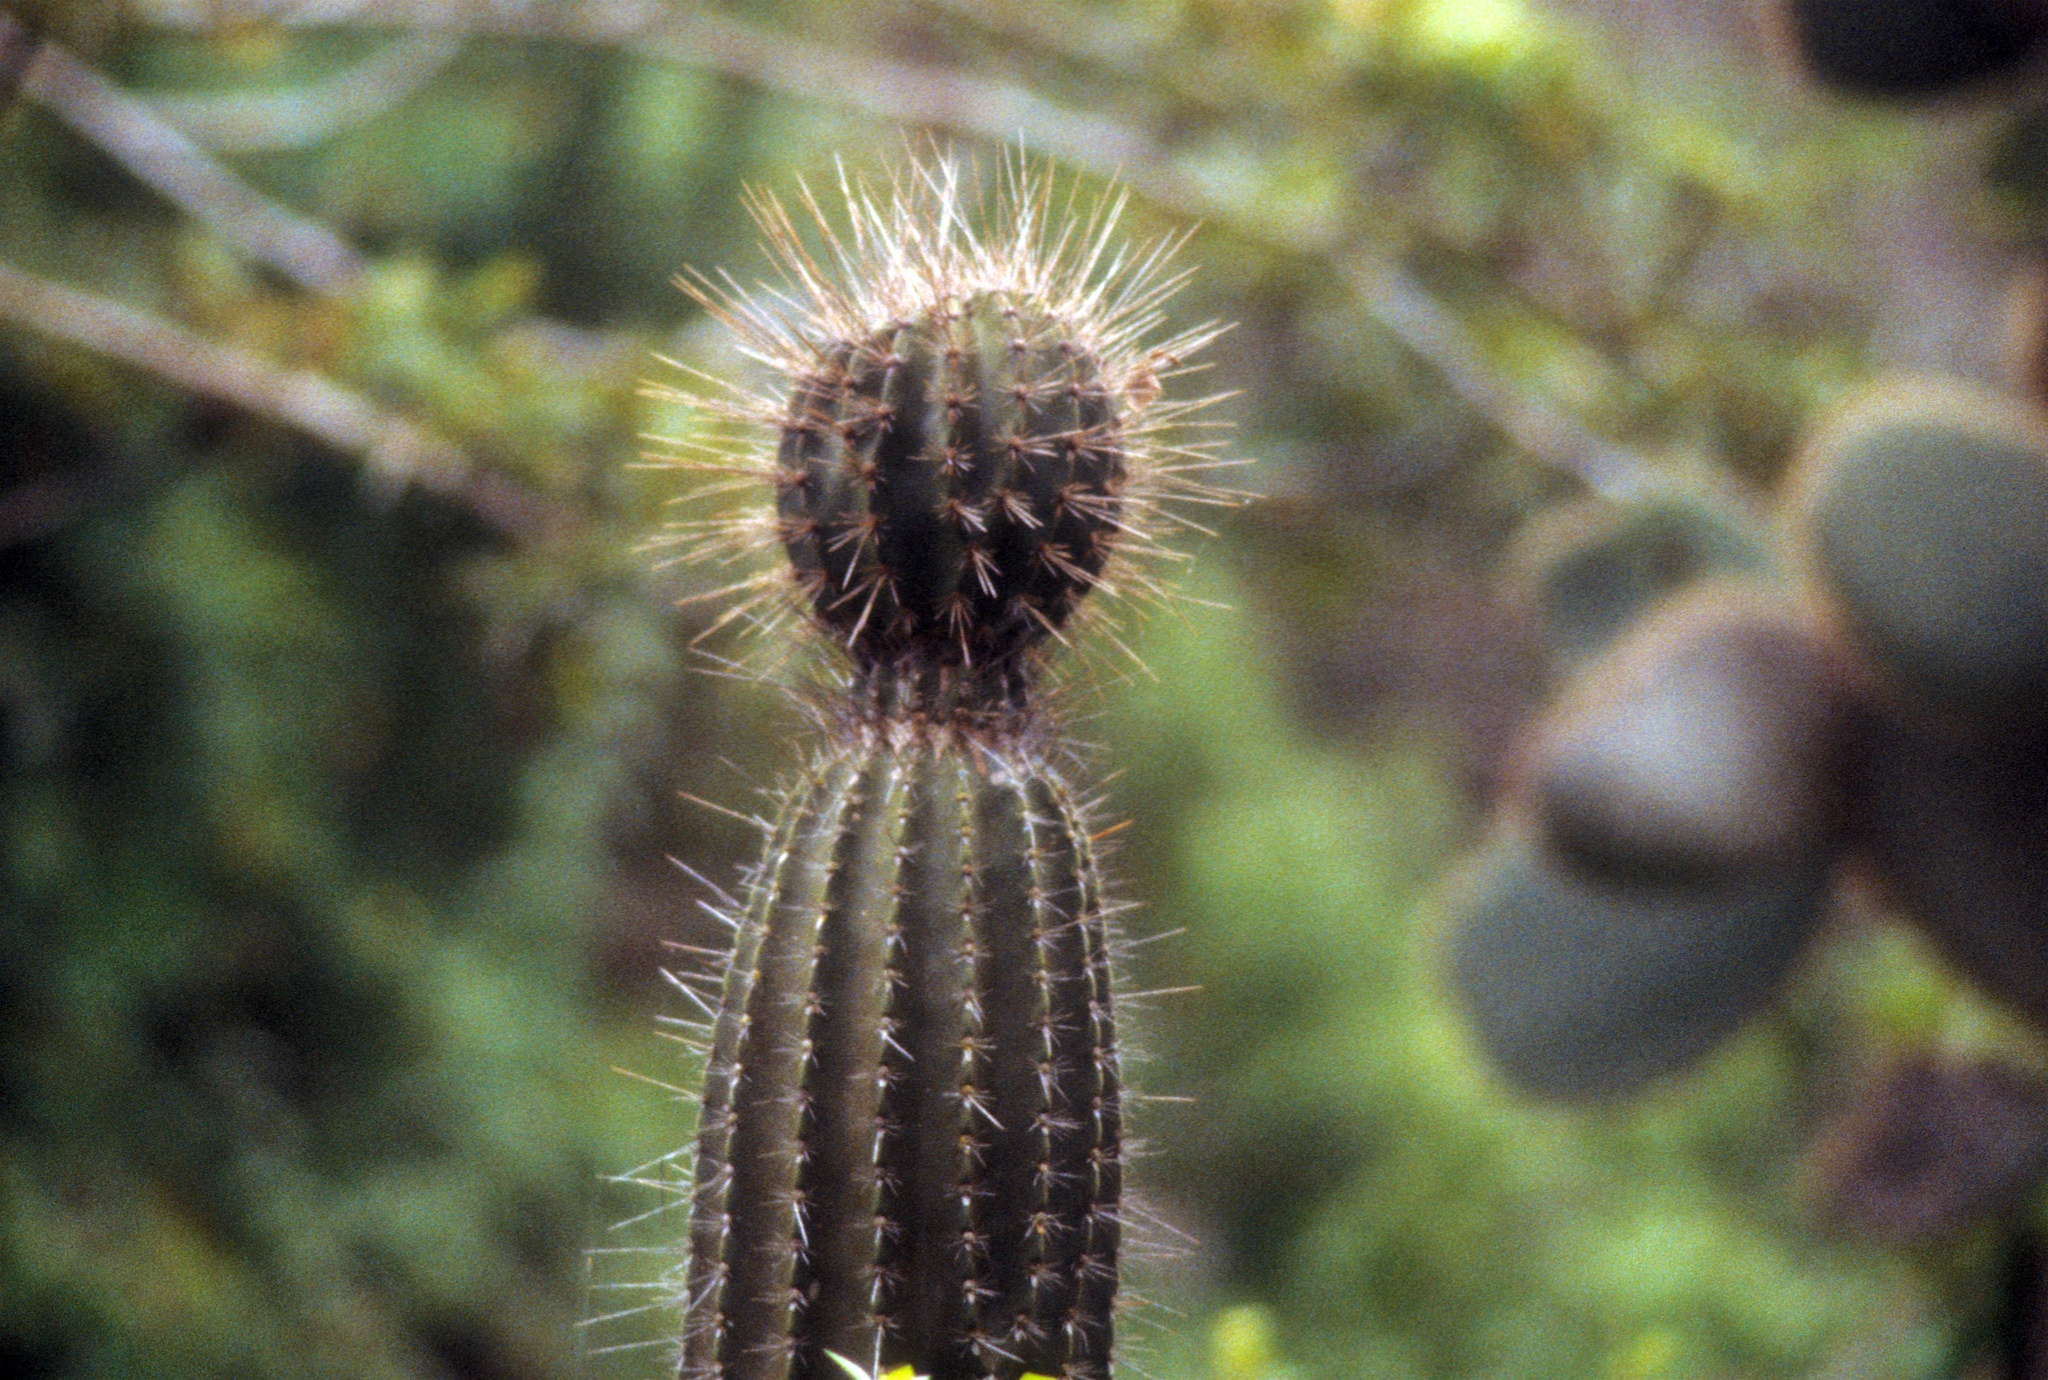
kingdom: Plantae
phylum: Tracheophyta
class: Magnoliopsida
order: Caryophyllales
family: Cactaceae
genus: Jasminocereus
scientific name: Jasminocereus thouarsii
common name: Candelabra cactus
